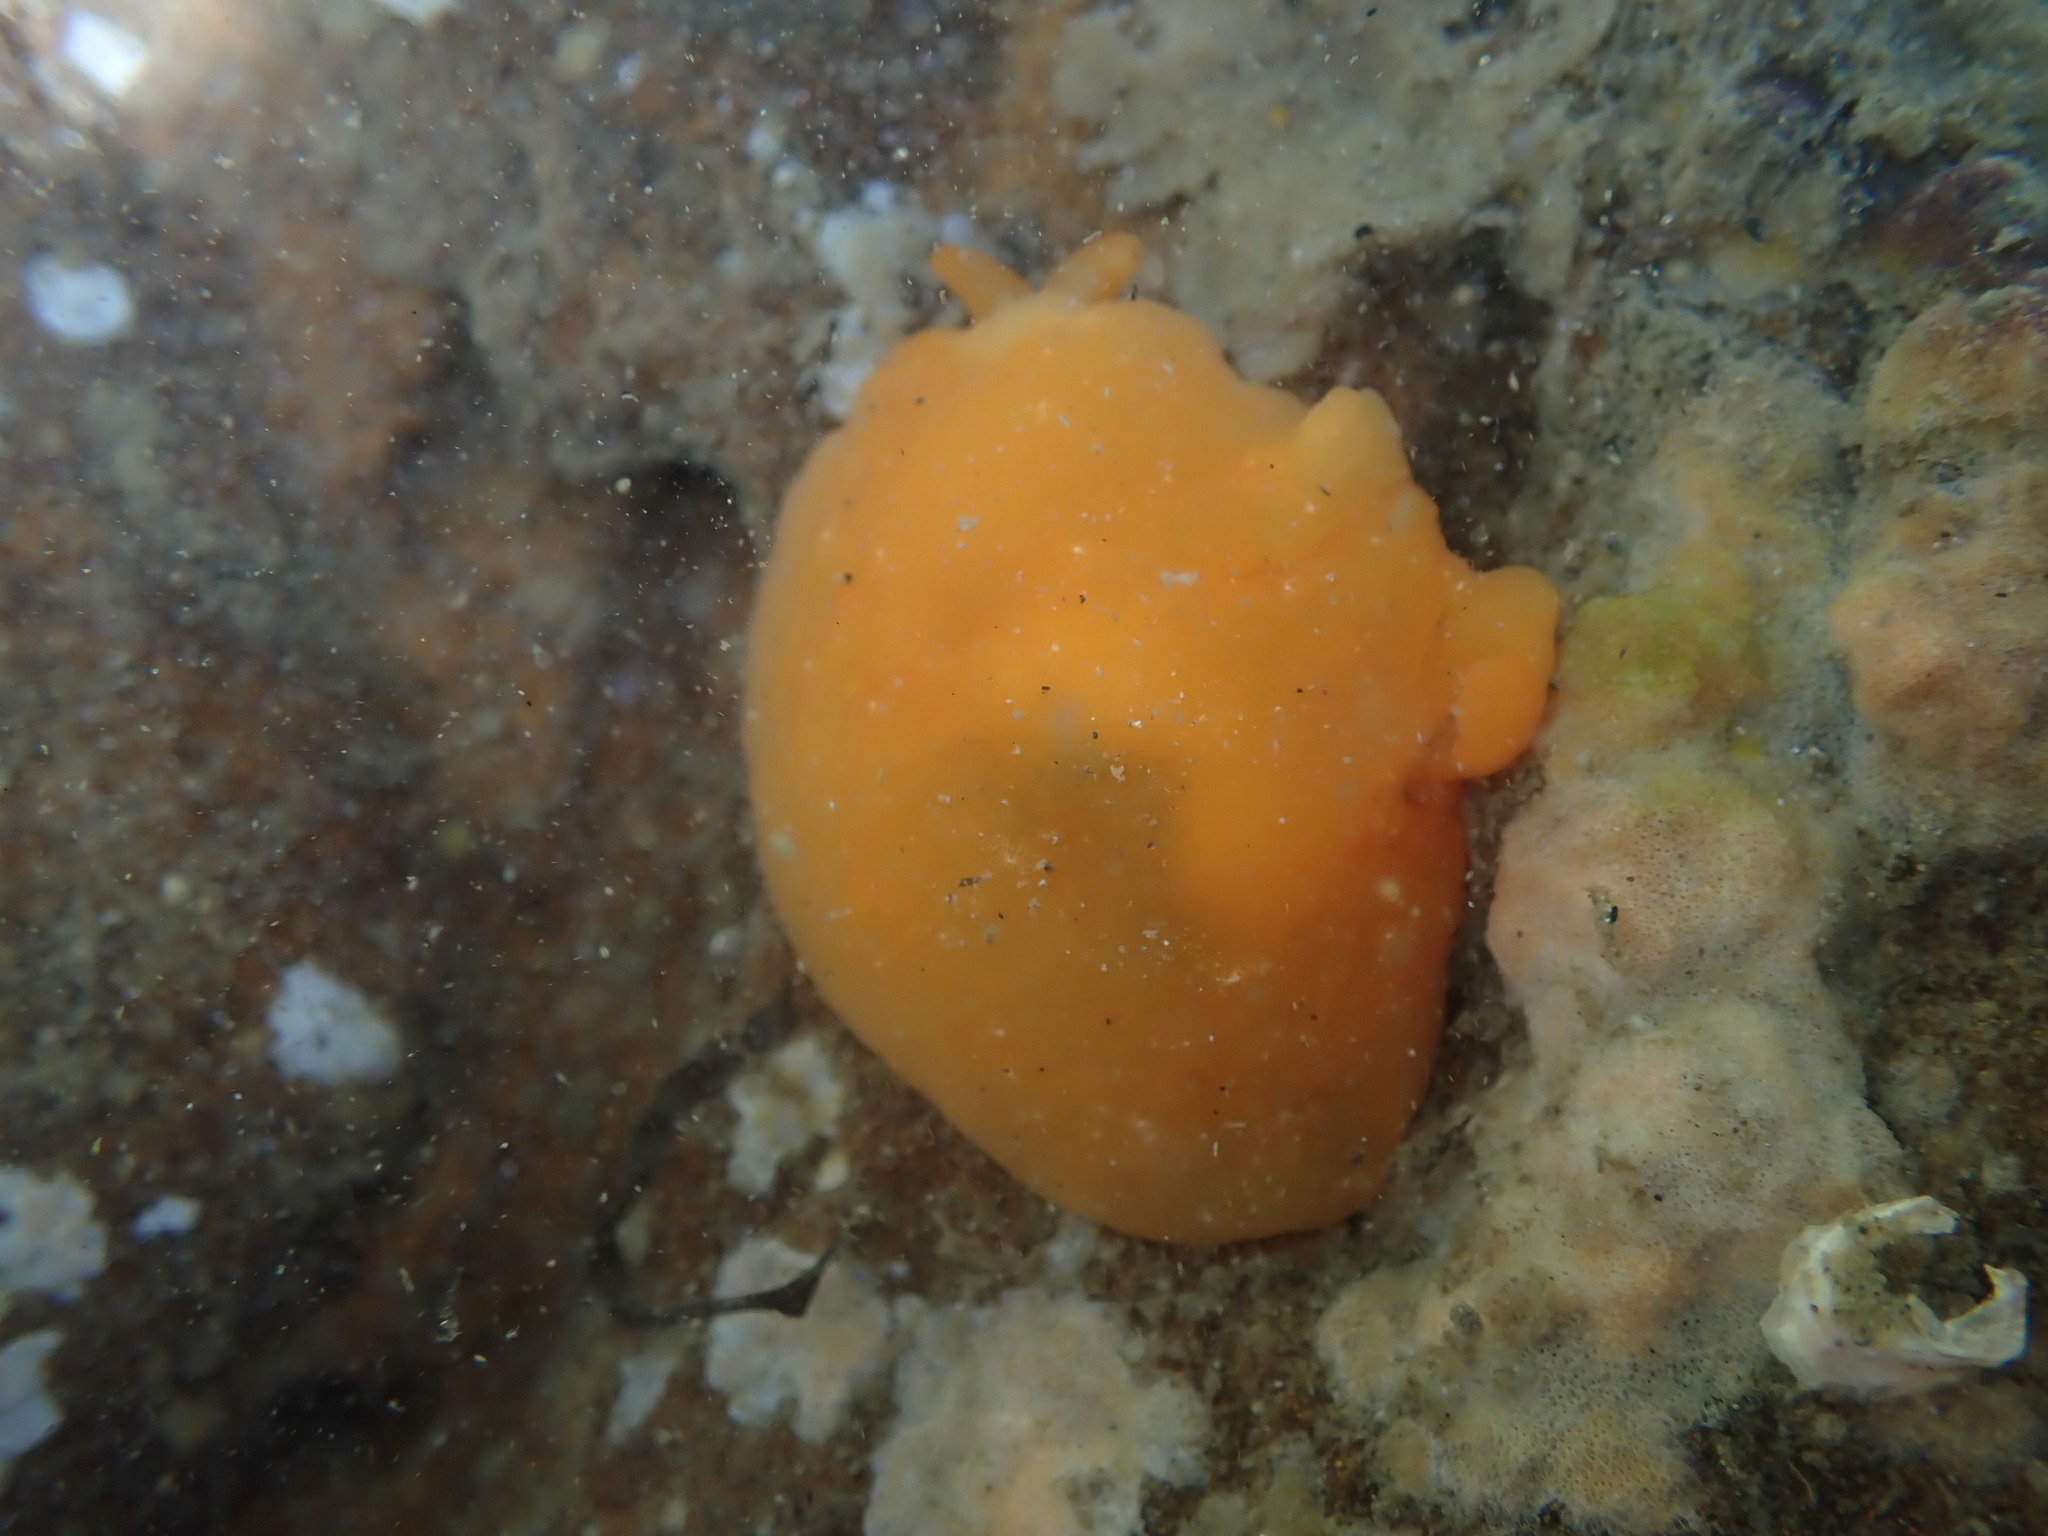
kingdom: Animalia
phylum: Mollusca
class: Gastropoda
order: Pleurobranchida
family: Pleurobranchidae
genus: Berthellina
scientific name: Berthellina citrina
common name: Lemon pleurobranch
